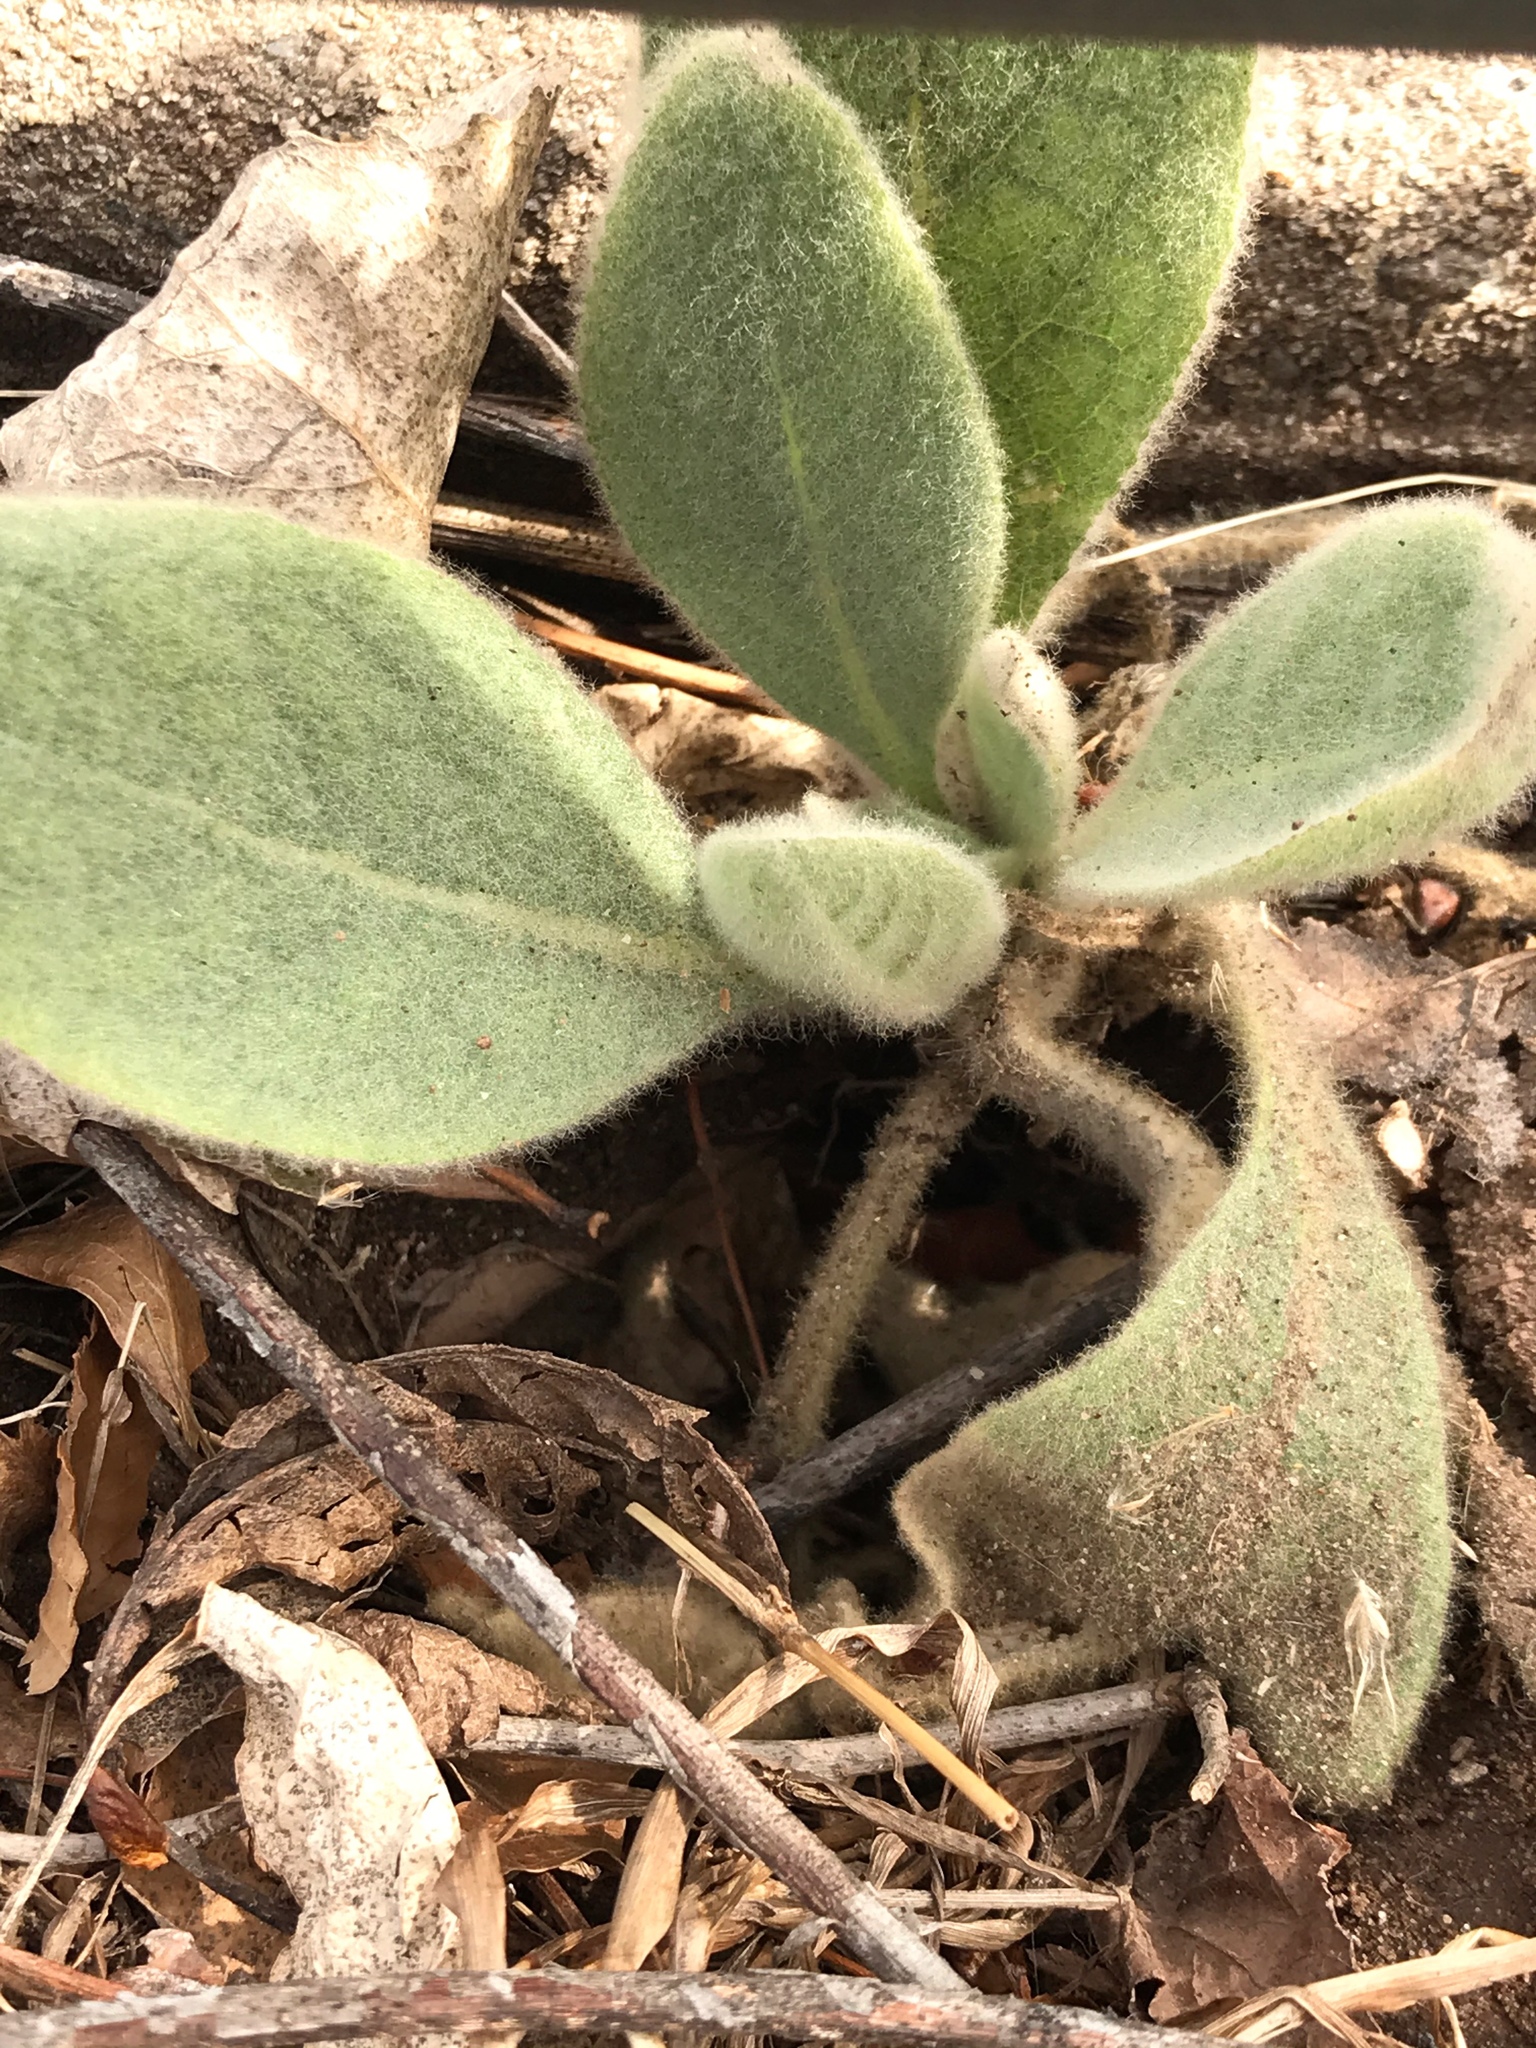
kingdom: Plantae
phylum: Tracheophyta
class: Magnoliopsida
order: Lamiales
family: Scrophulariaceae
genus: Verbascum
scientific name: Verbascum thapsus
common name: Common mullein
